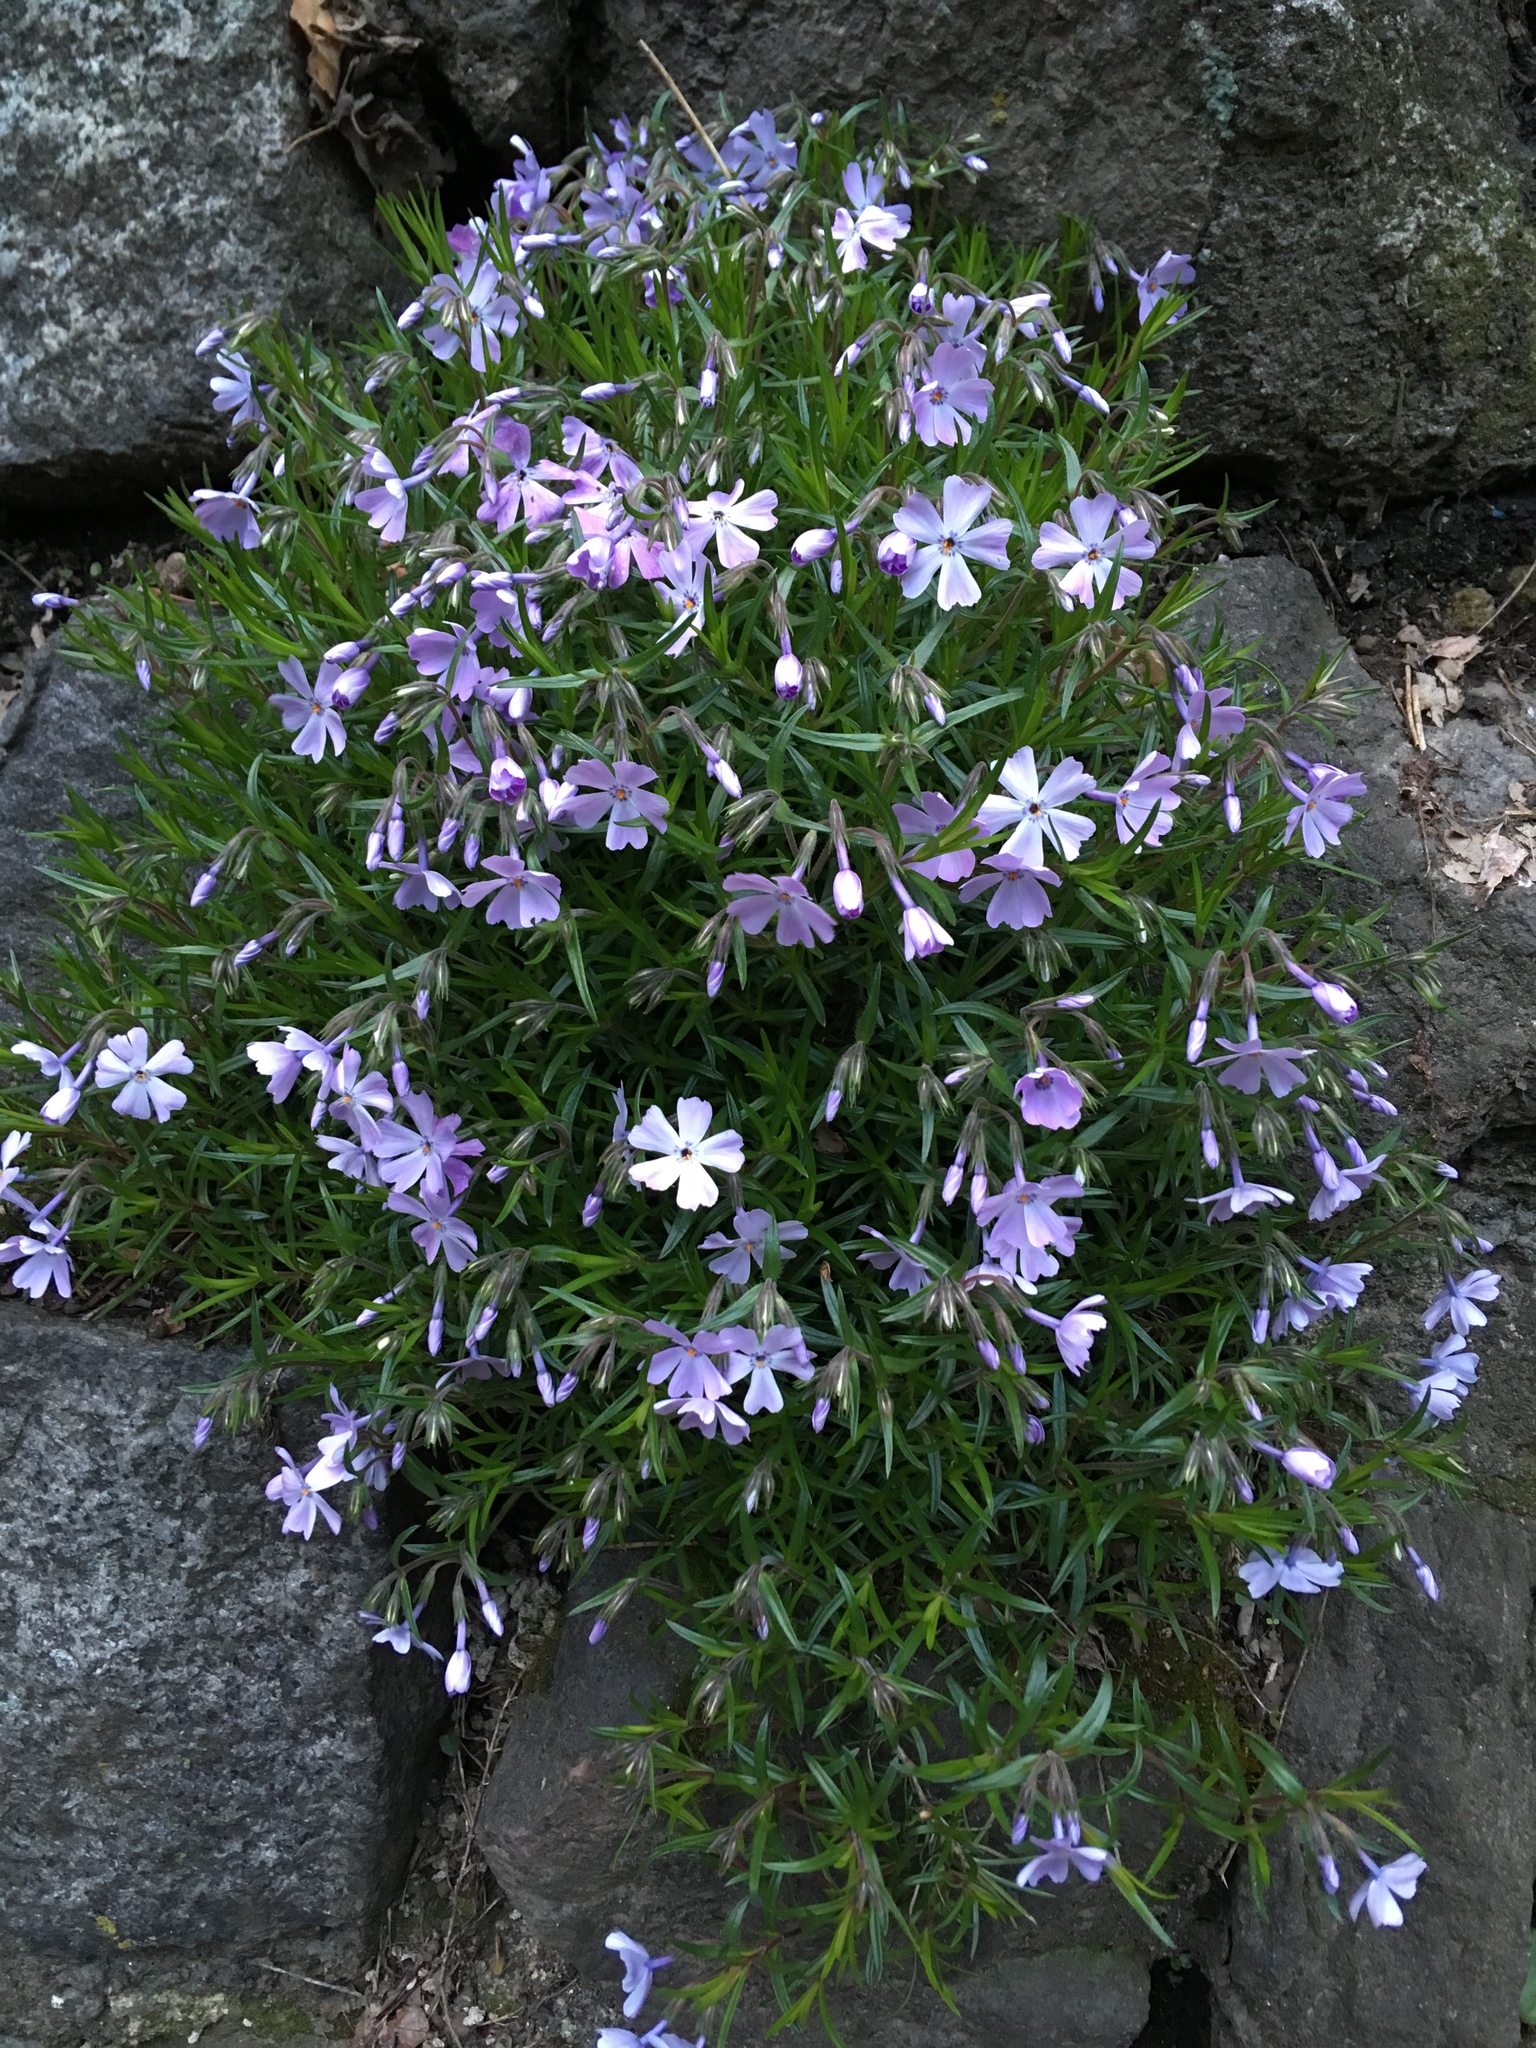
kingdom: Plantae
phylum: Tracheophyta
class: Magnoliopsida
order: Ericales
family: Polemoniaceae
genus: Phlox
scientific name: Phlox subulata
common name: Moss phlox
